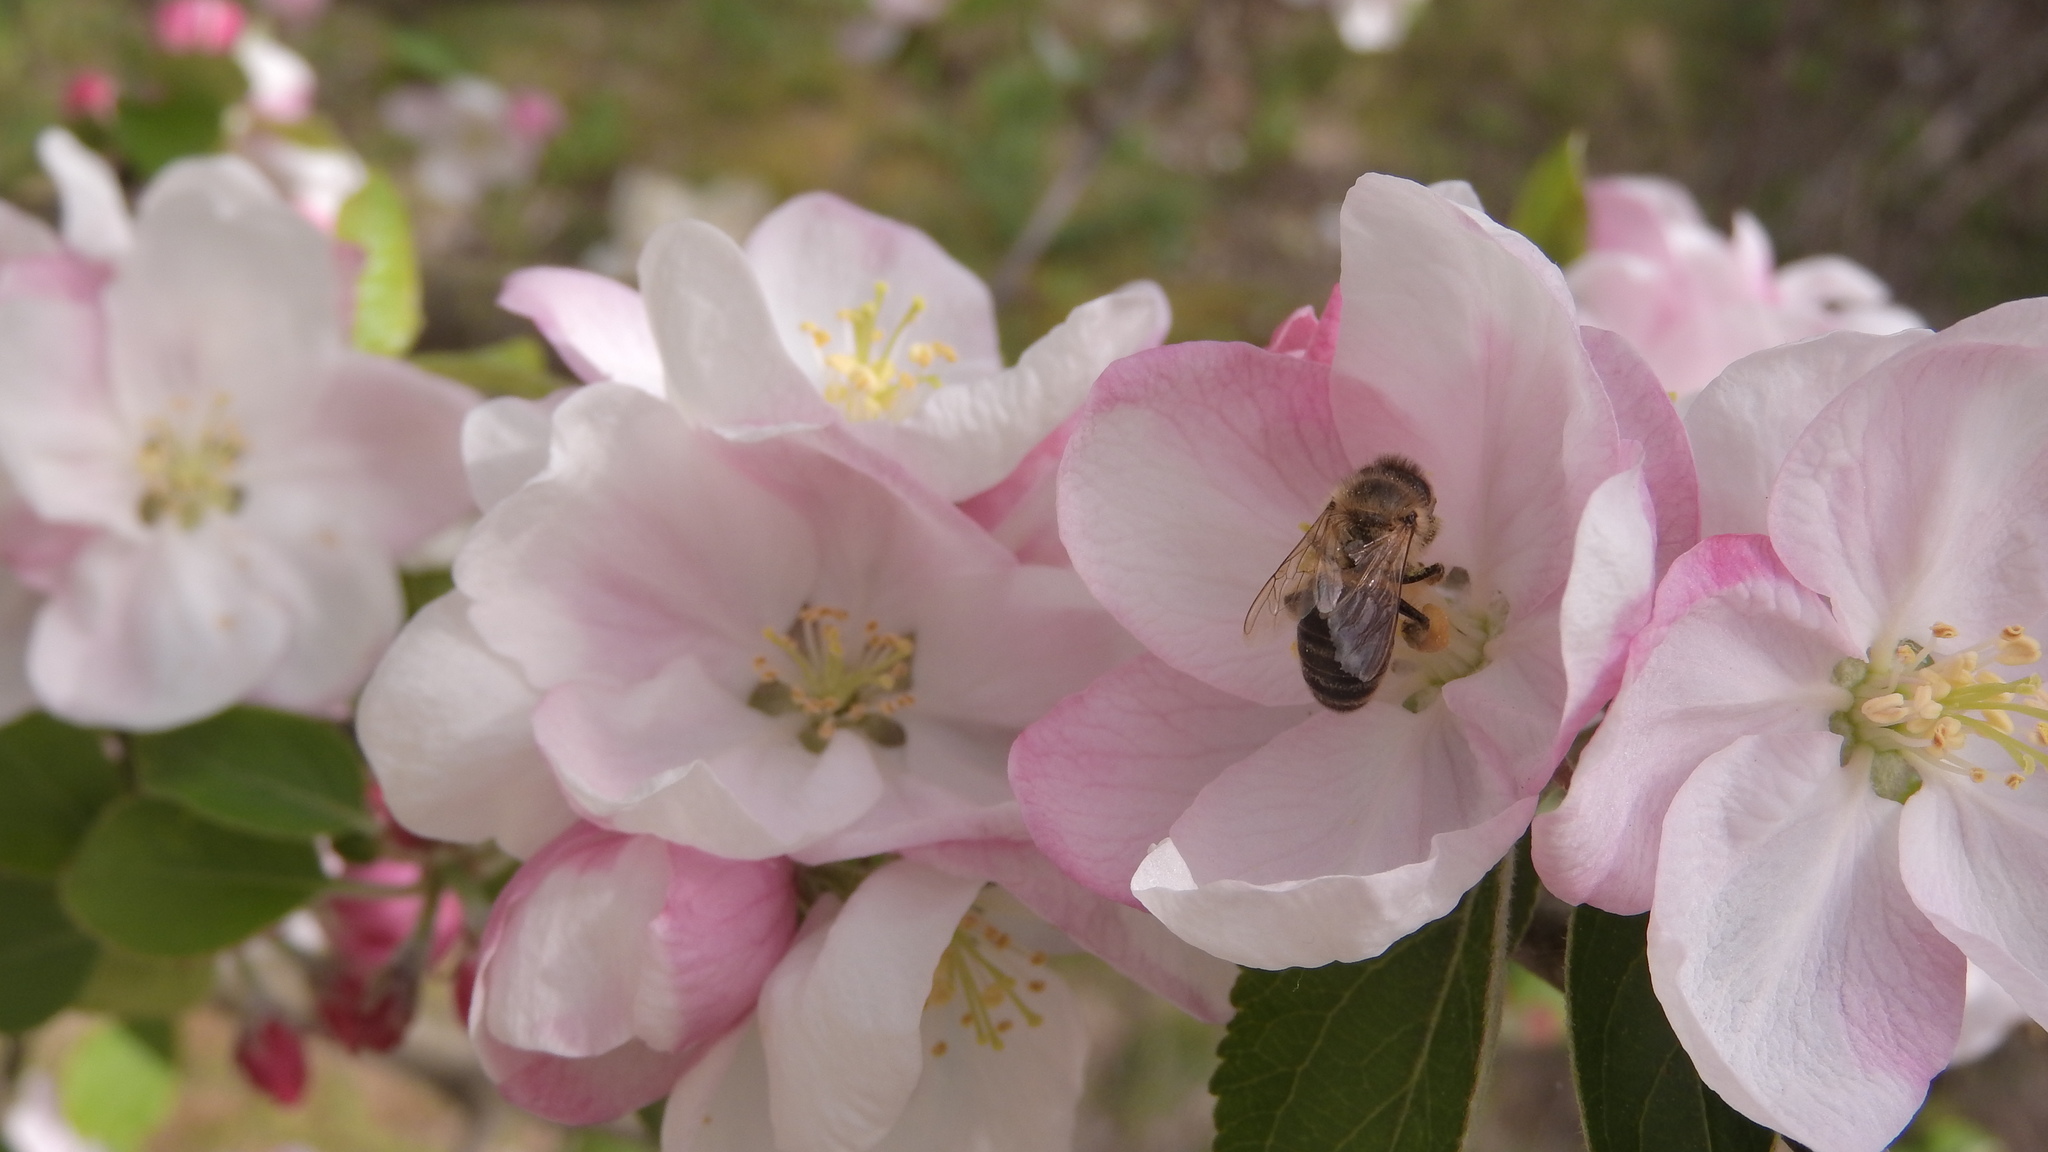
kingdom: Animalia
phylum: Arthropoda
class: Insecta
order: Hymenoptera
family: Apidae
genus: Apis
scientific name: Apis mellifera
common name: Honey bee
